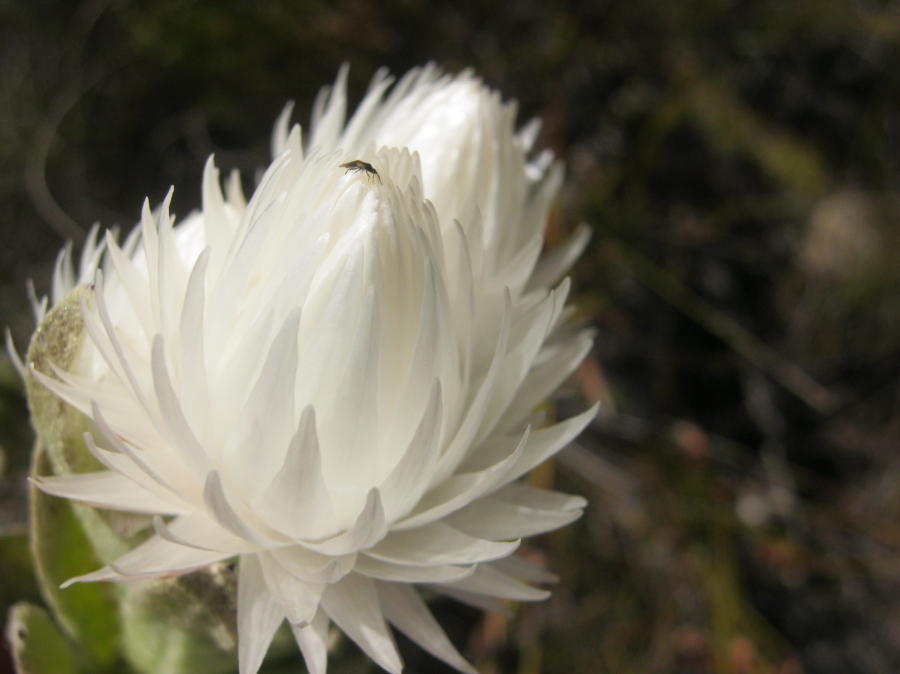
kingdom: Plantae
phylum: Tracheophyta
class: Magnoliopsida
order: Asterales
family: Asteraceae
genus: Syncarpha
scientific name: Syncarpha vestita
